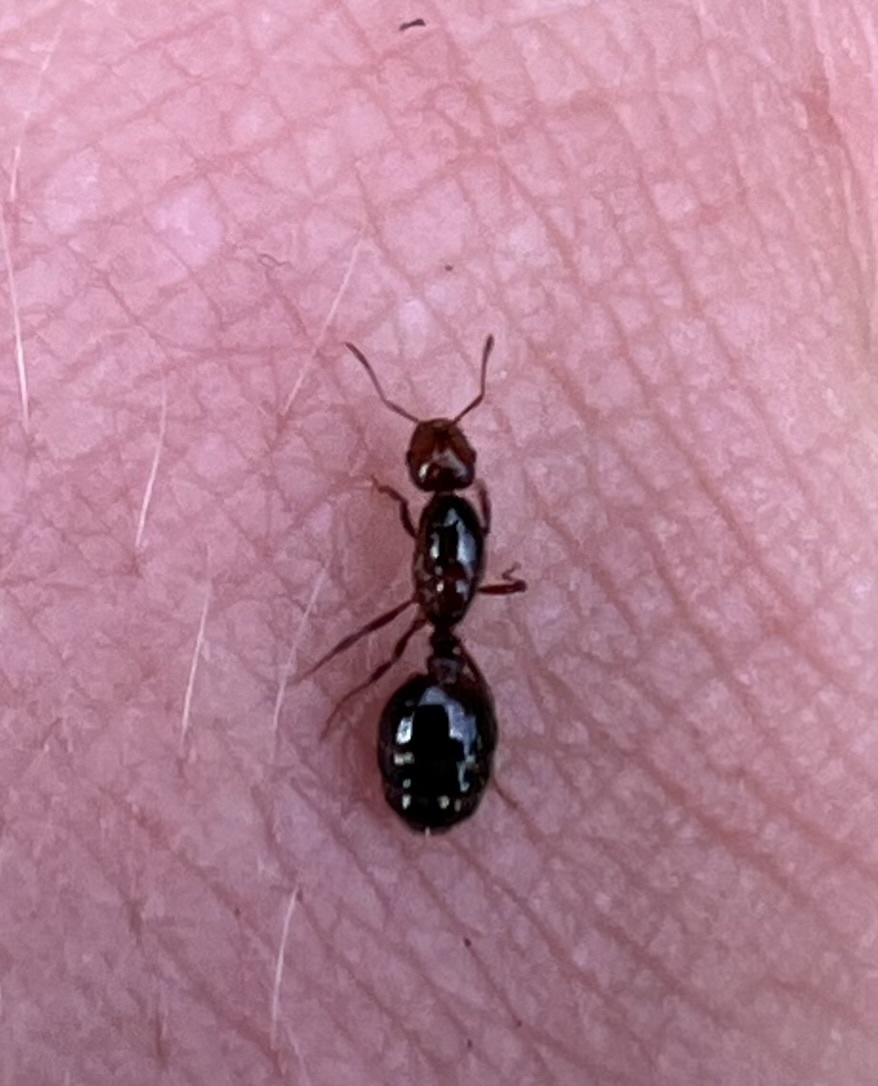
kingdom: Animalia
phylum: Arthropoda
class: Insecta
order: Hymenoptera
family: Formicidae
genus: Solenopsis
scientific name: Solenopsis invicta
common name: Red imported fire ant
